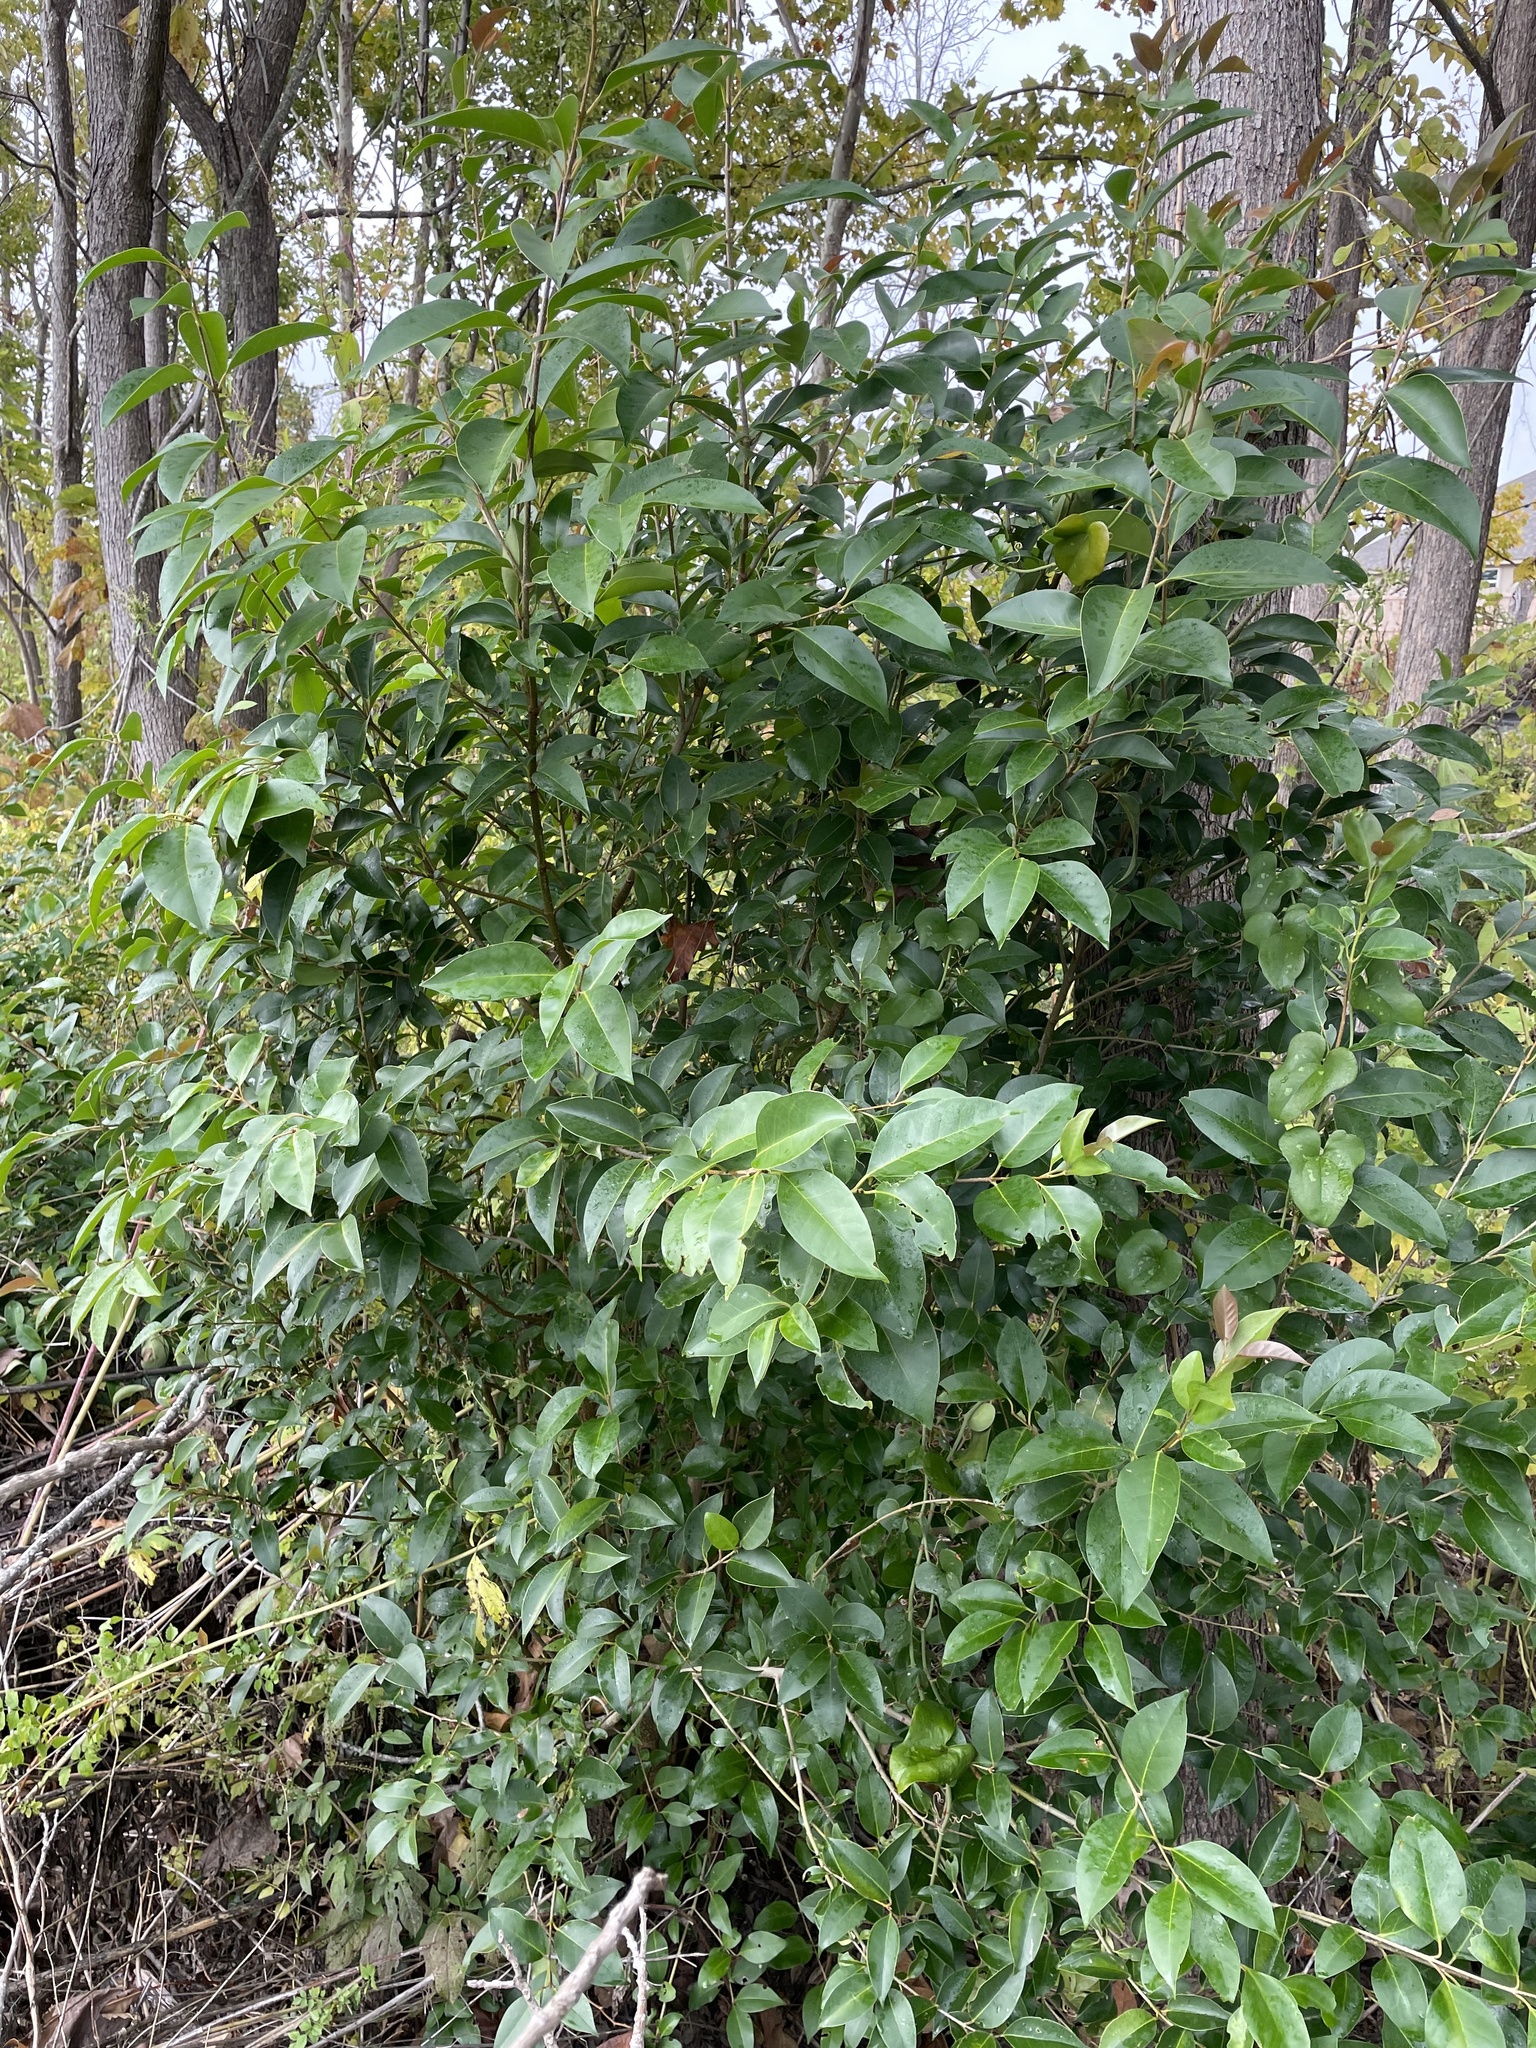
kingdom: Plantae
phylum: Tracheophyta
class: Magnoliopsida
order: Lamiales
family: Oleaceae
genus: Ligustrum
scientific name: Ligustrum lucidum
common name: Glossy privet
